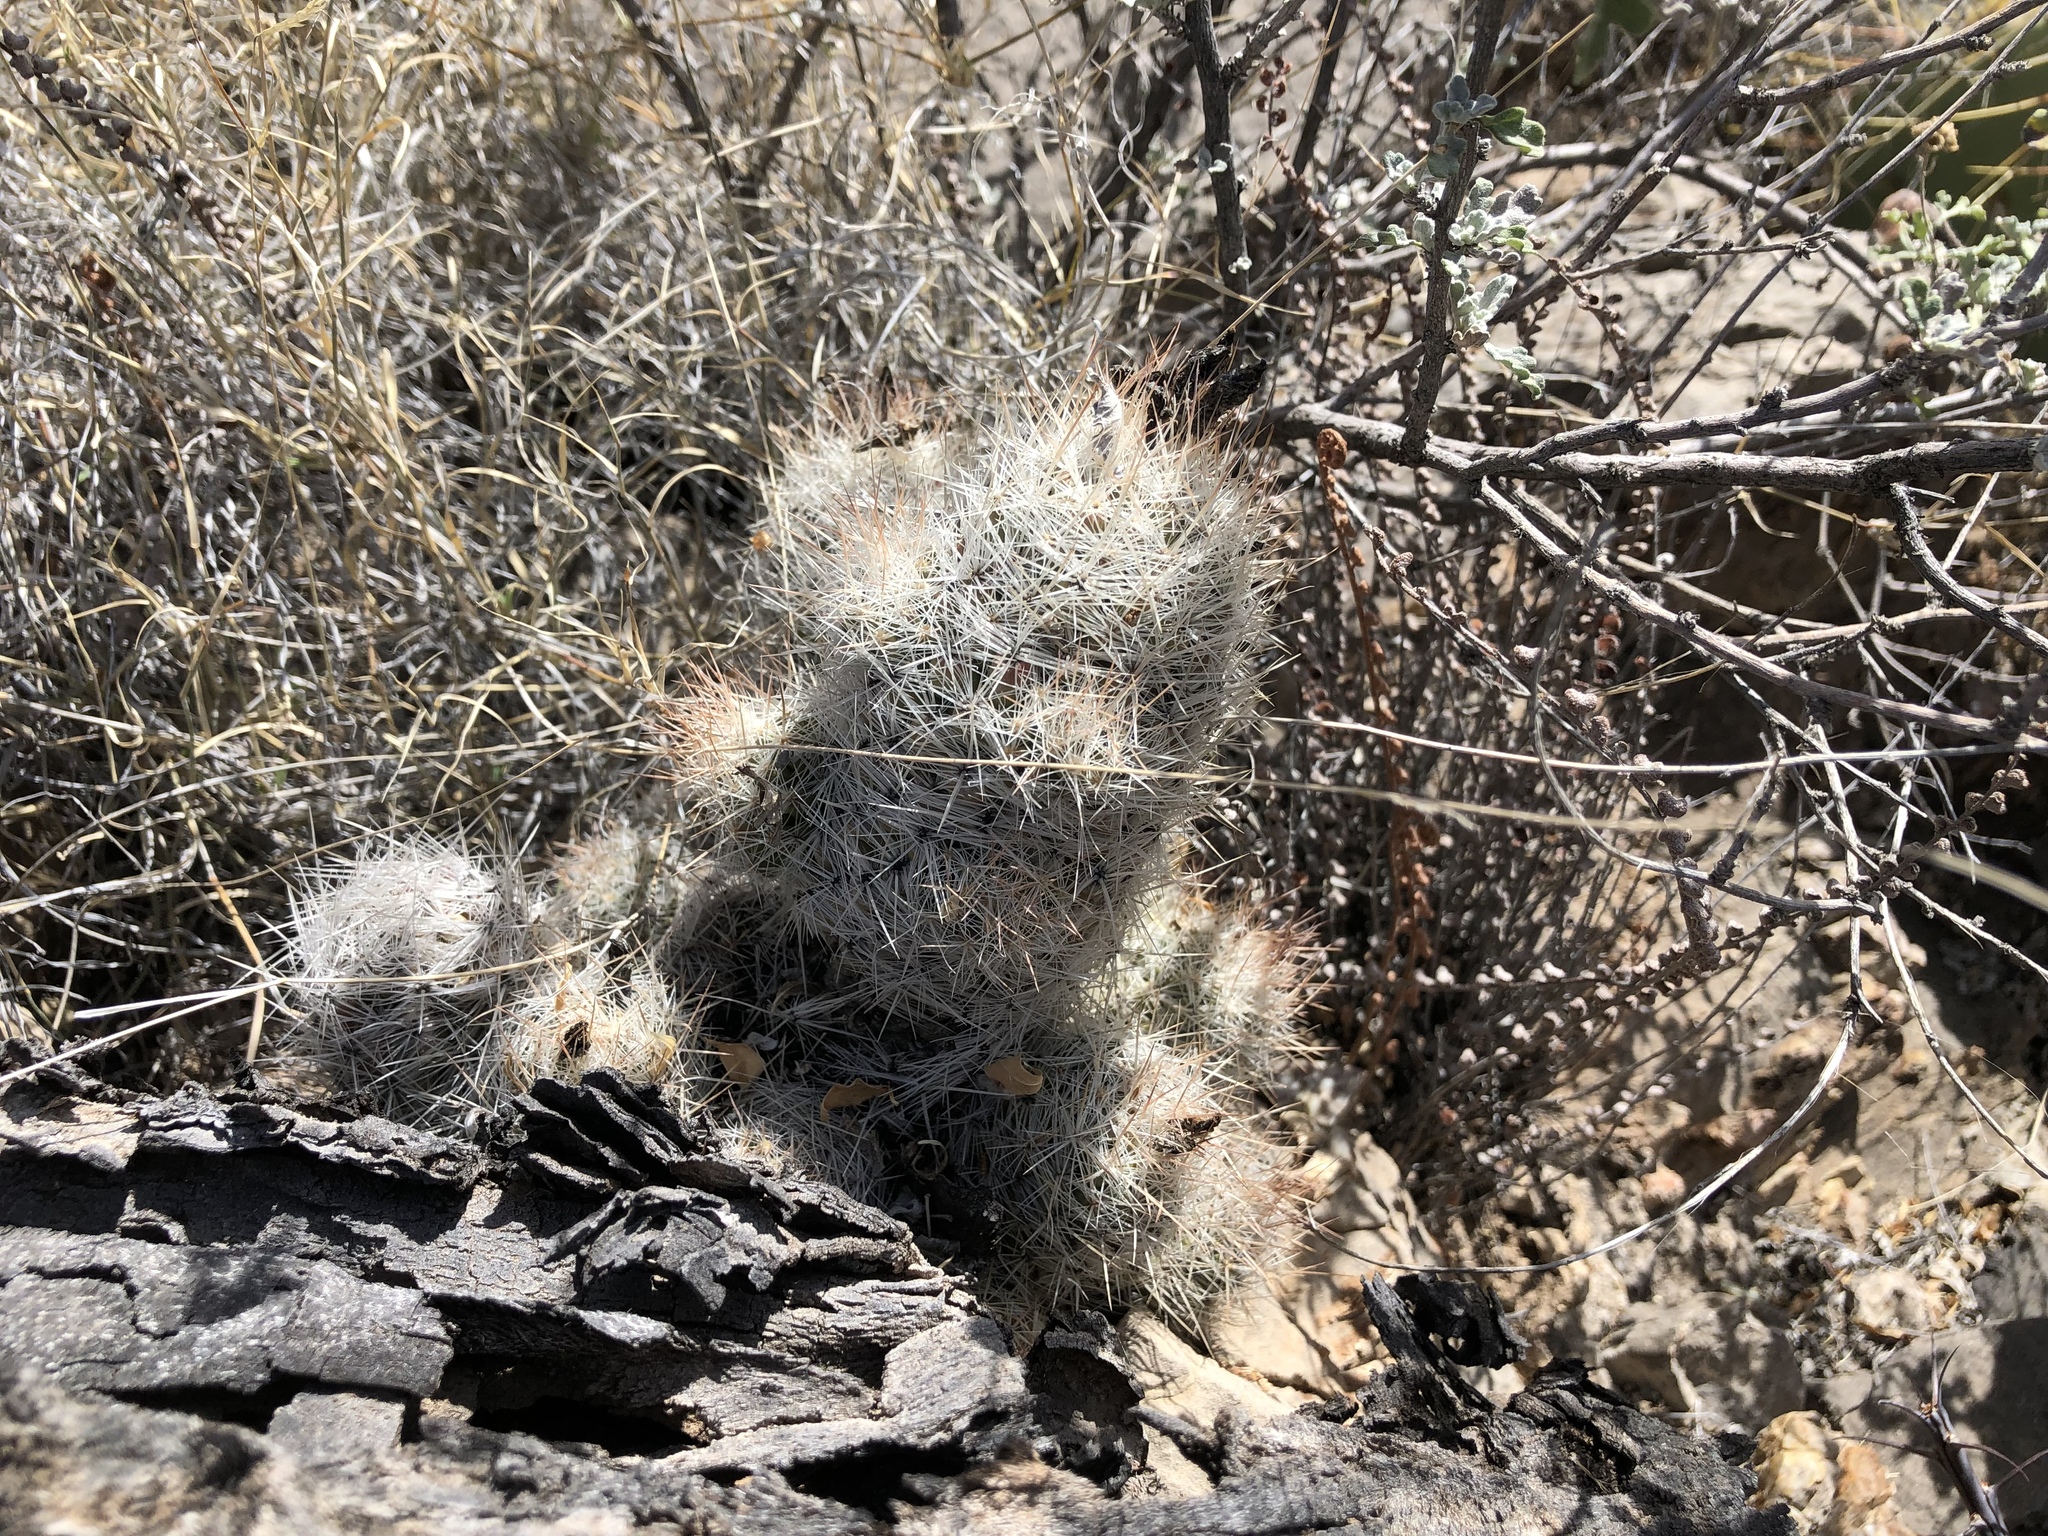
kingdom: Plantae
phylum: Tracheophyta
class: Magnoliopsida
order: Caryophyllales
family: Cactaceae
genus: Pelecyphora
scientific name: Pelecyphora tuberculosa
